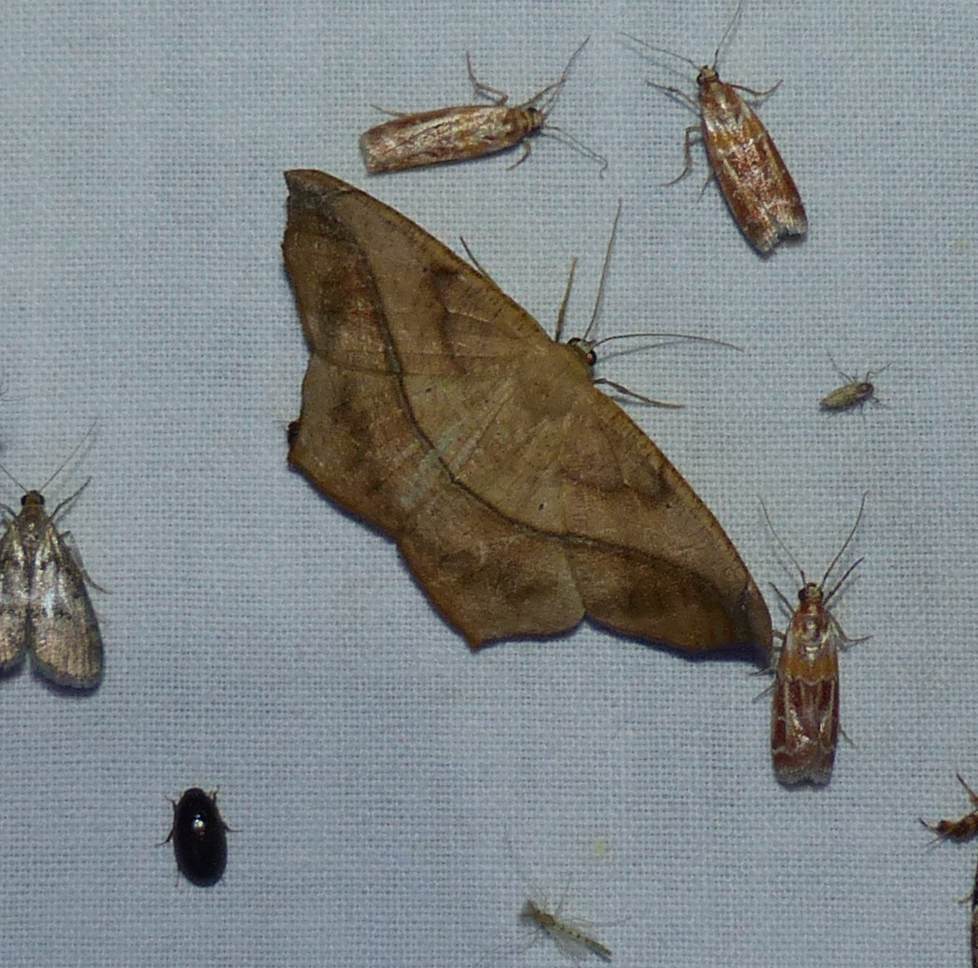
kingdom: Animalia
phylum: Arthropoda
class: Insecta
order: Lepidoptera
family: Geometridae
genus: Prochoerodes
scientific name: Prochoerodes lineola
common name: Large maple spanworm
